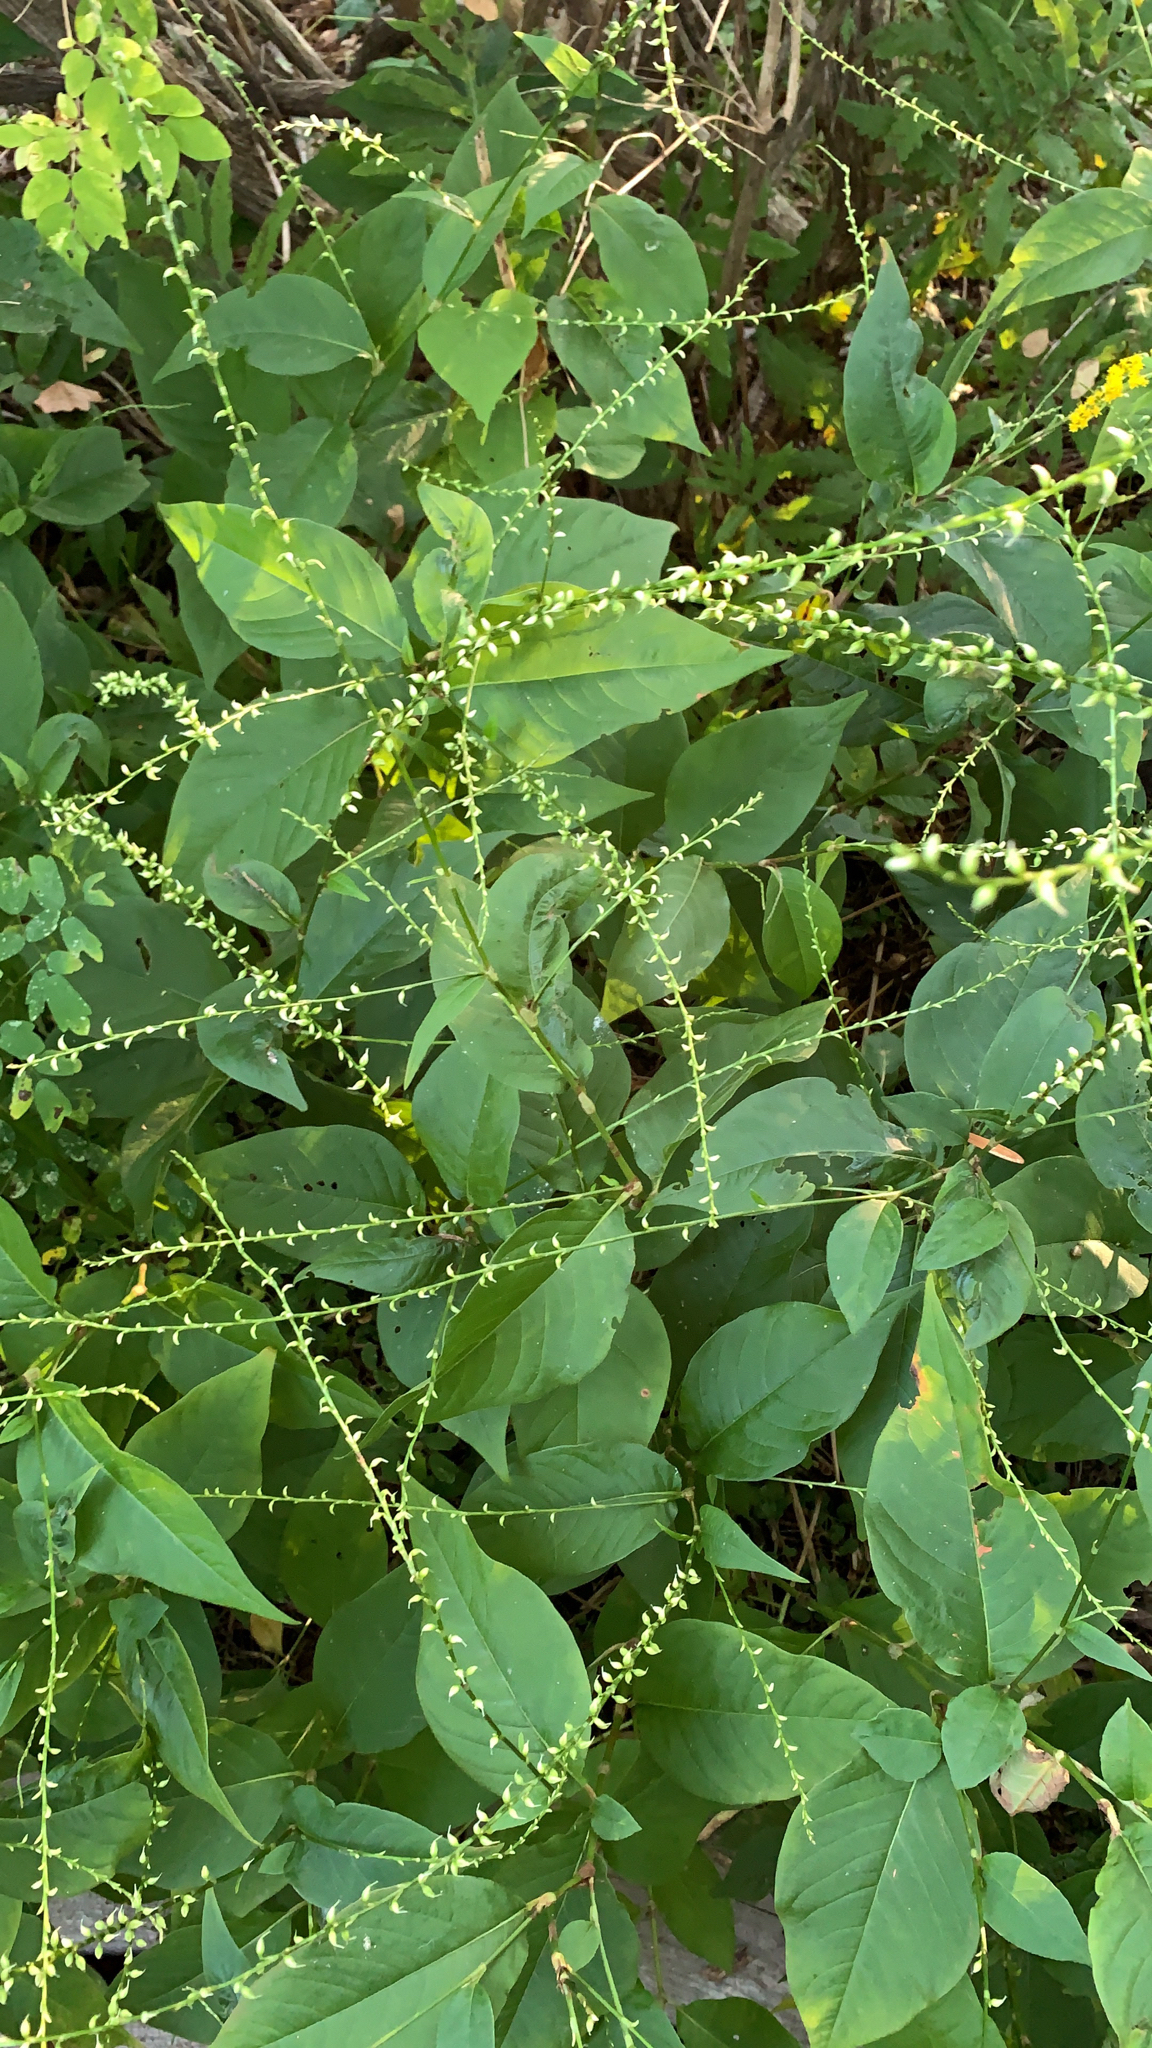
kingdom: Plantae
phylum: Tracheophyta
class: Magnoliopsida
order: Caryophyllales
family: Polygonaceae
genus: Persicaria
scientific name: Persicaria virginiana
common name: Jumpseed
